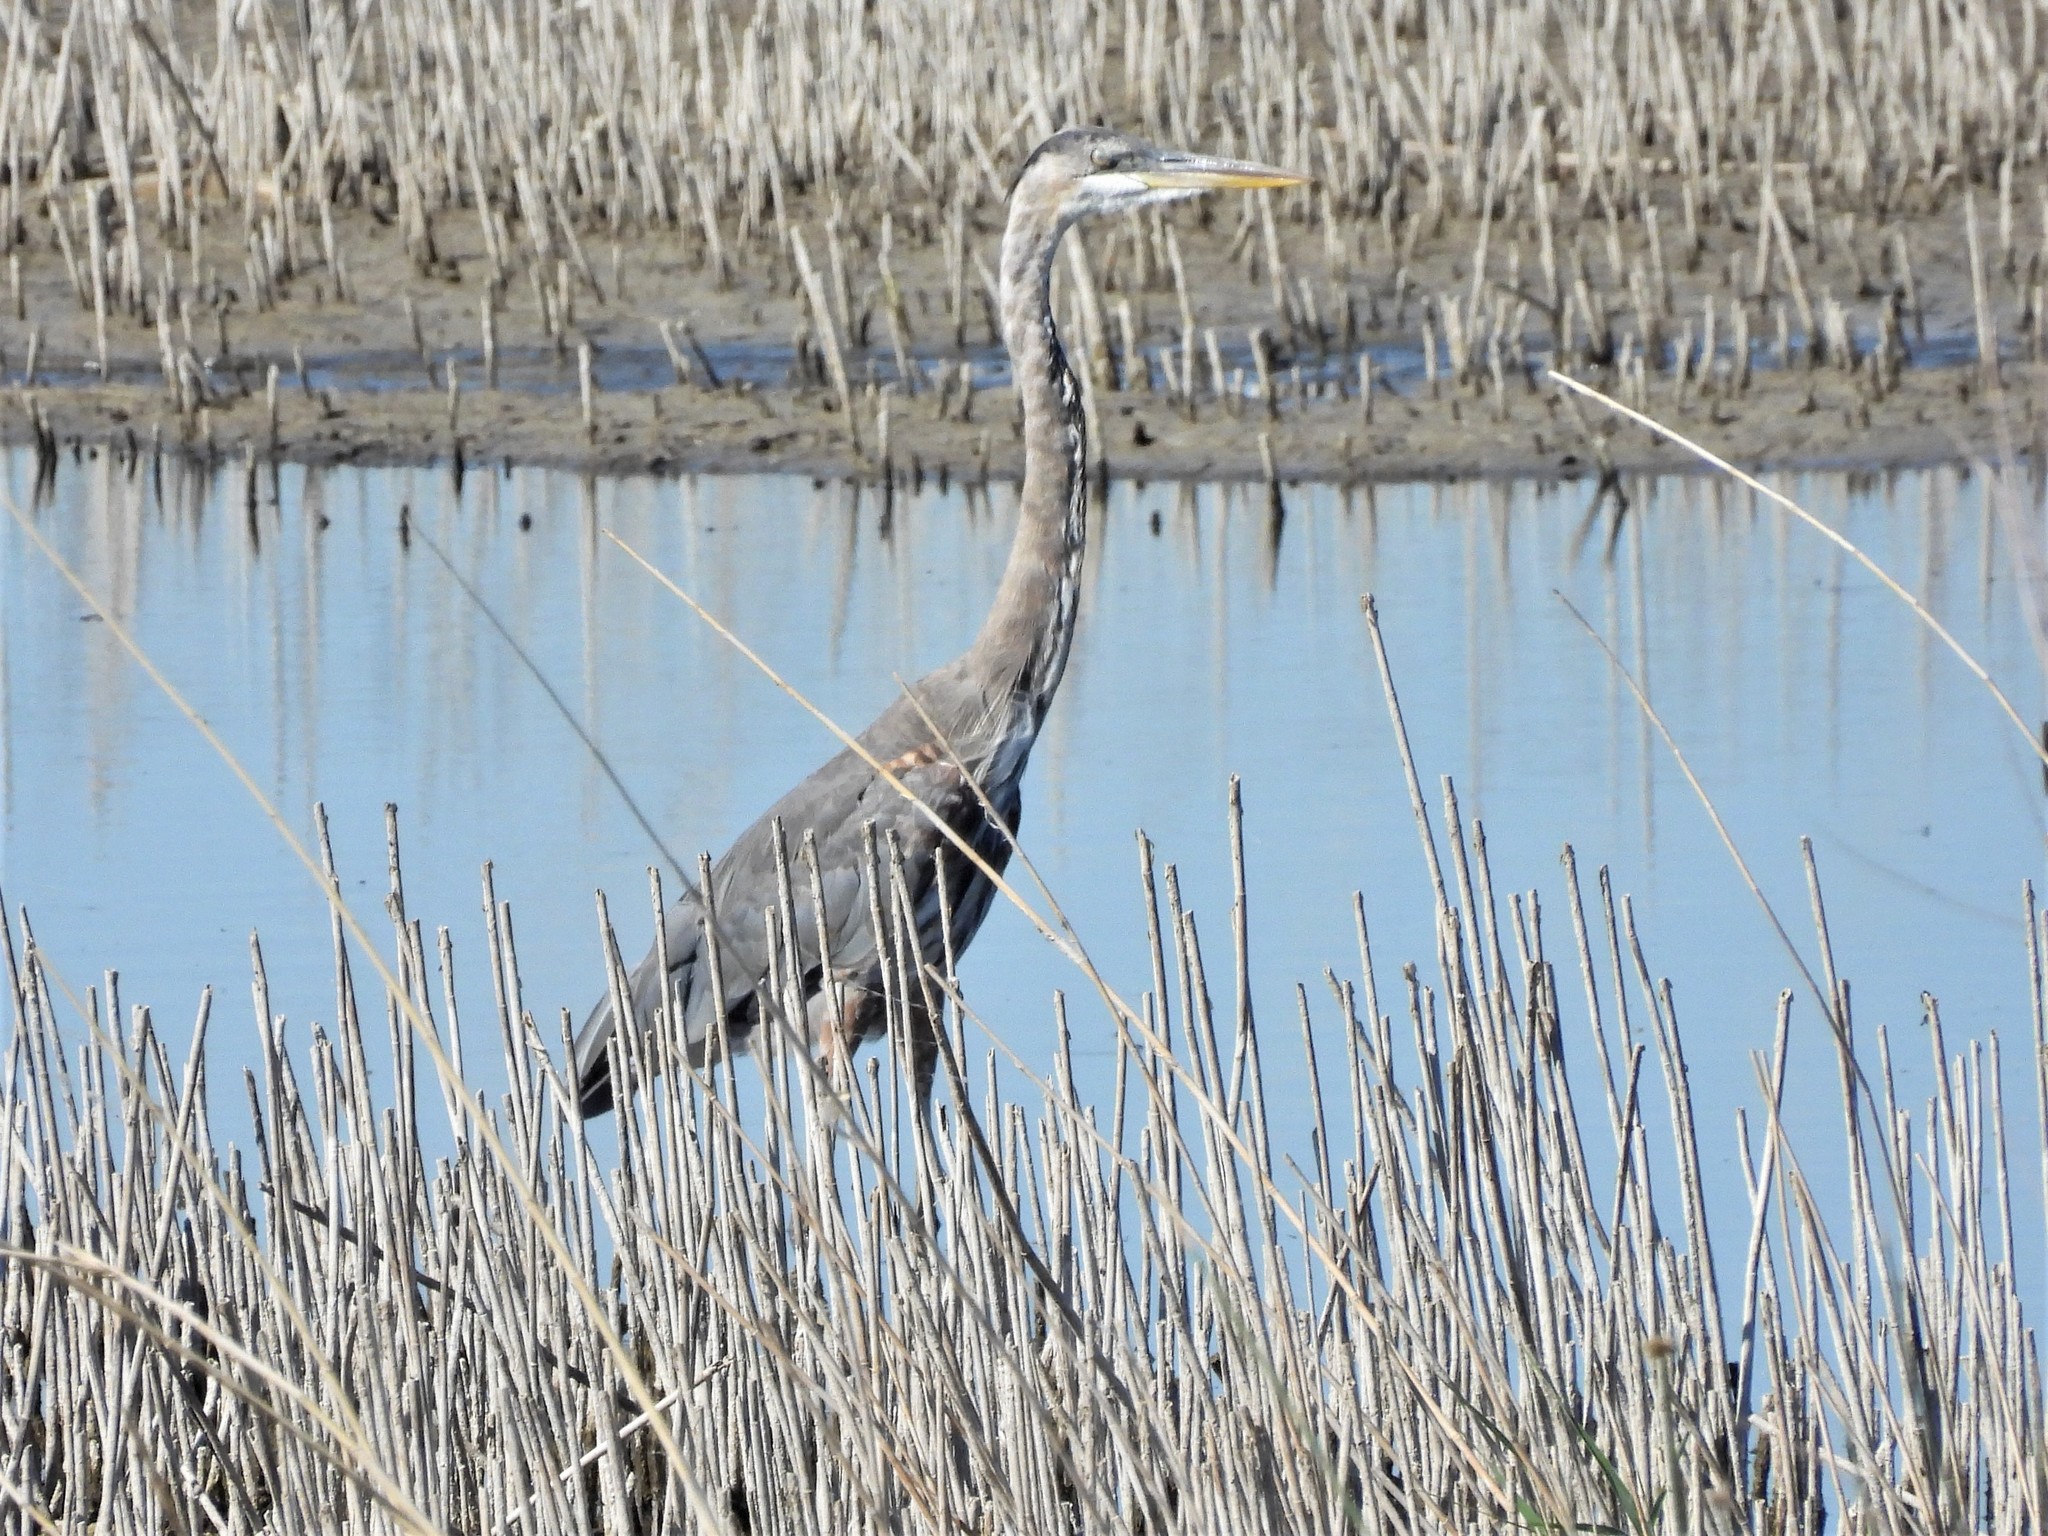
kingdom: Animalia
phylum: Chordata
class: Aves
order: Pelecaniformes
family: Ardeidae
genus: Ardea
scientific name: Ardea herodias
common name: Great blue heron
